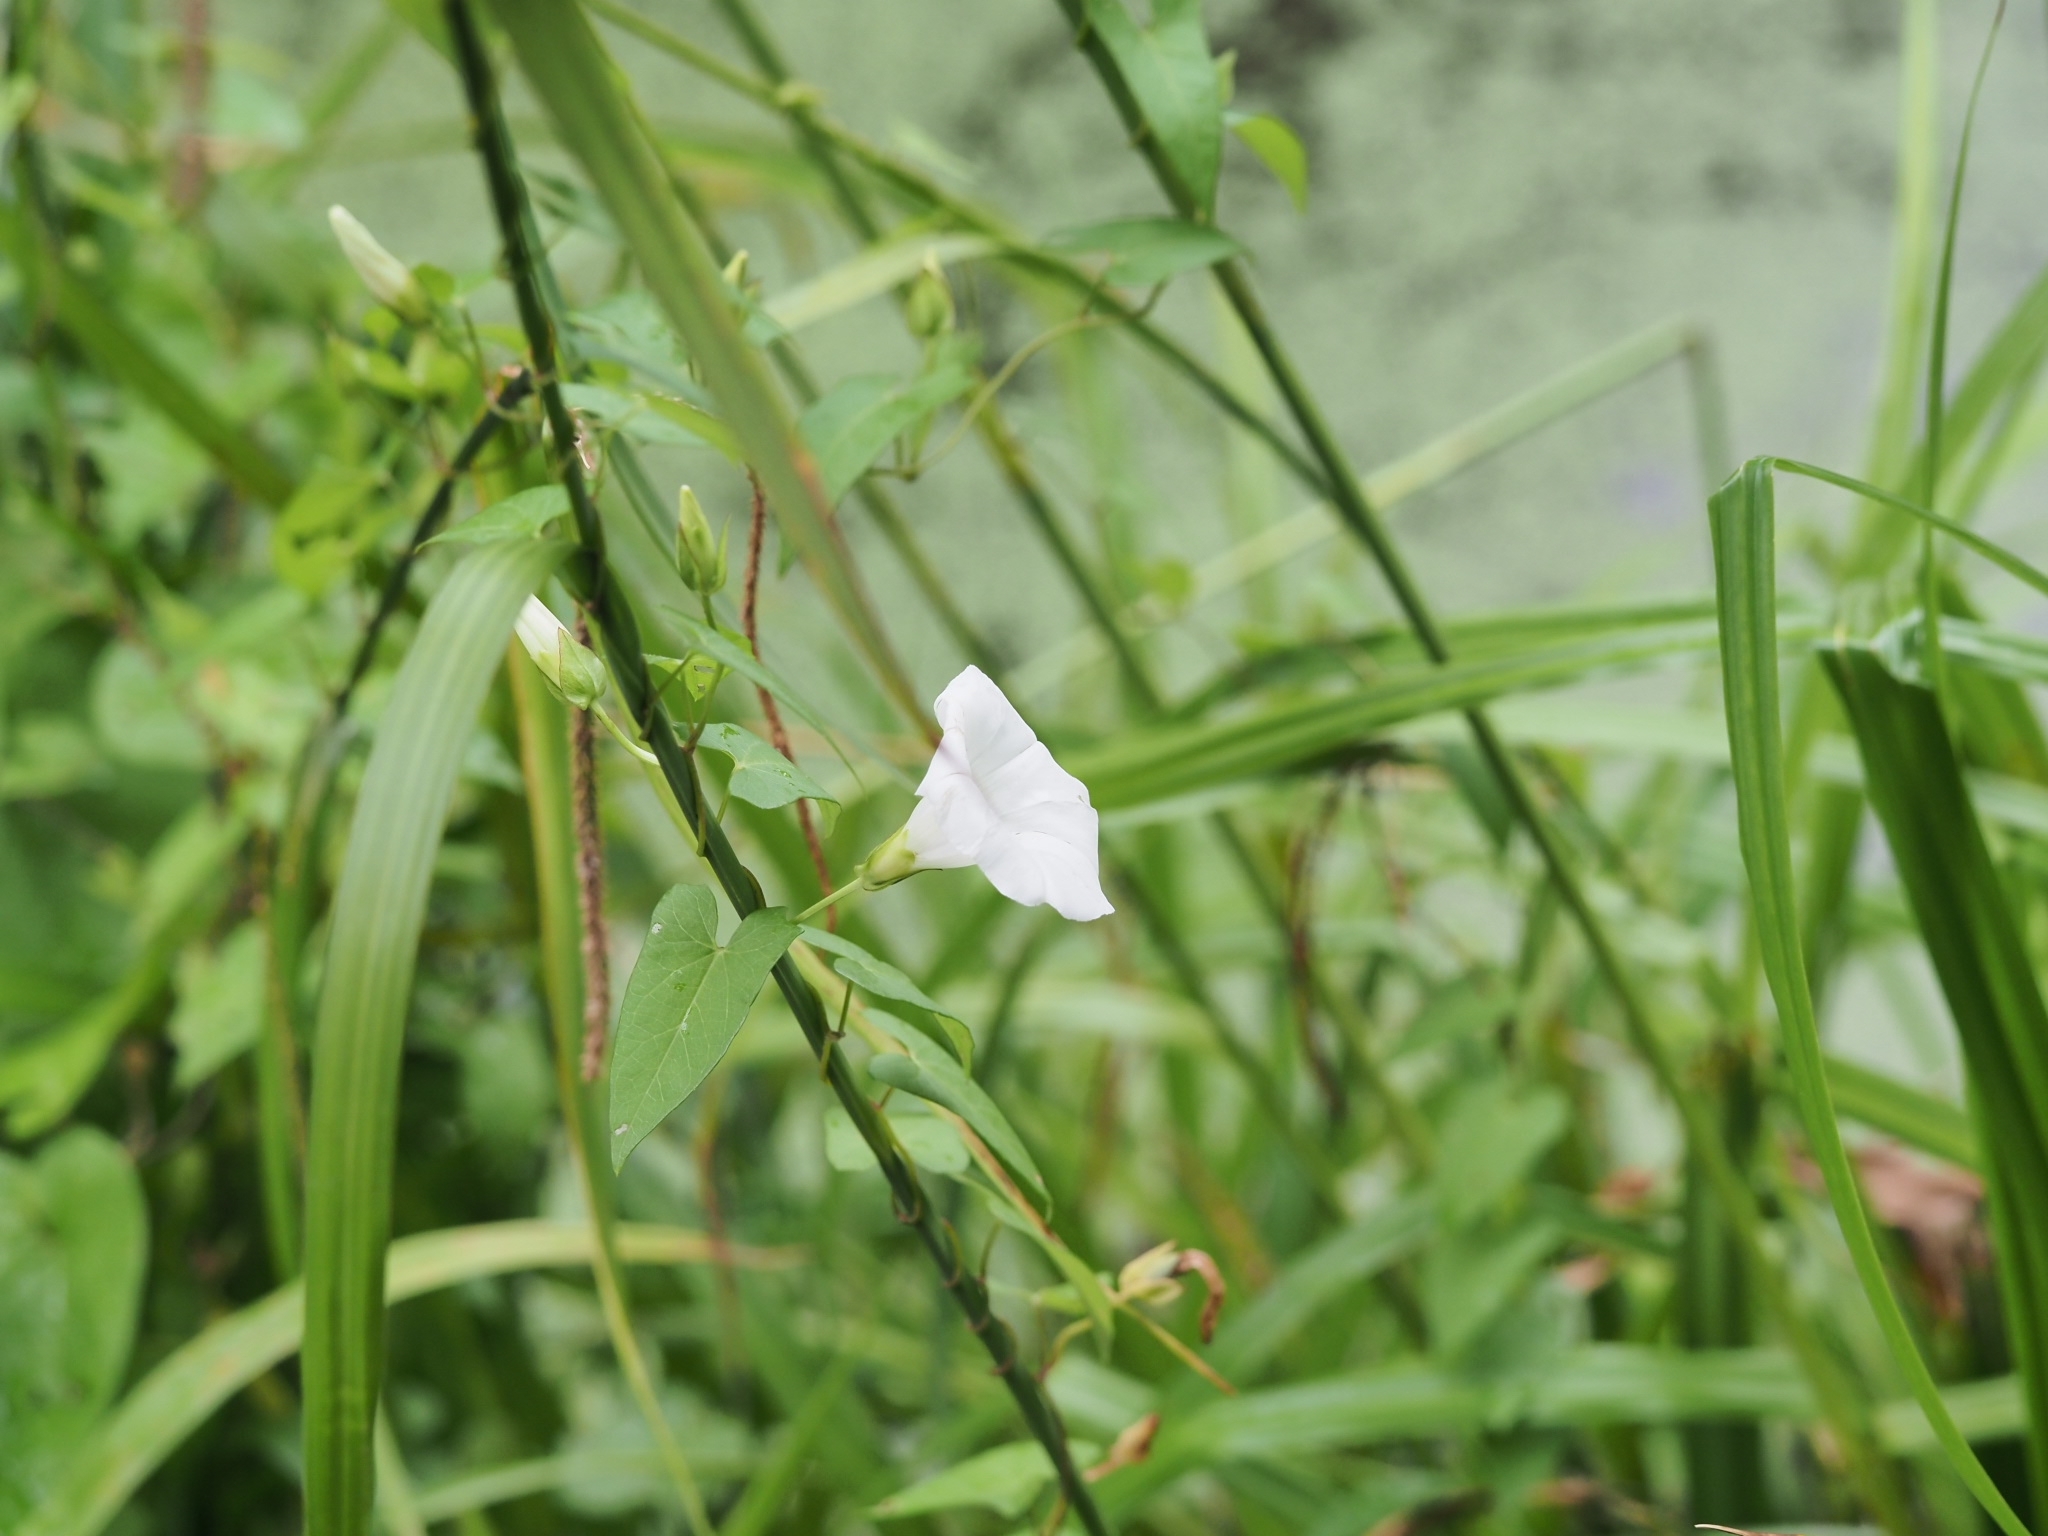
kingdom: Plantae
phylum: Tracheophyta
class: Magnoliopsida
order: Solanales
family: Convolvulaceae
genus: Calystegia
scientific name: Calystegia sepium
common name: Hedge bindweed
